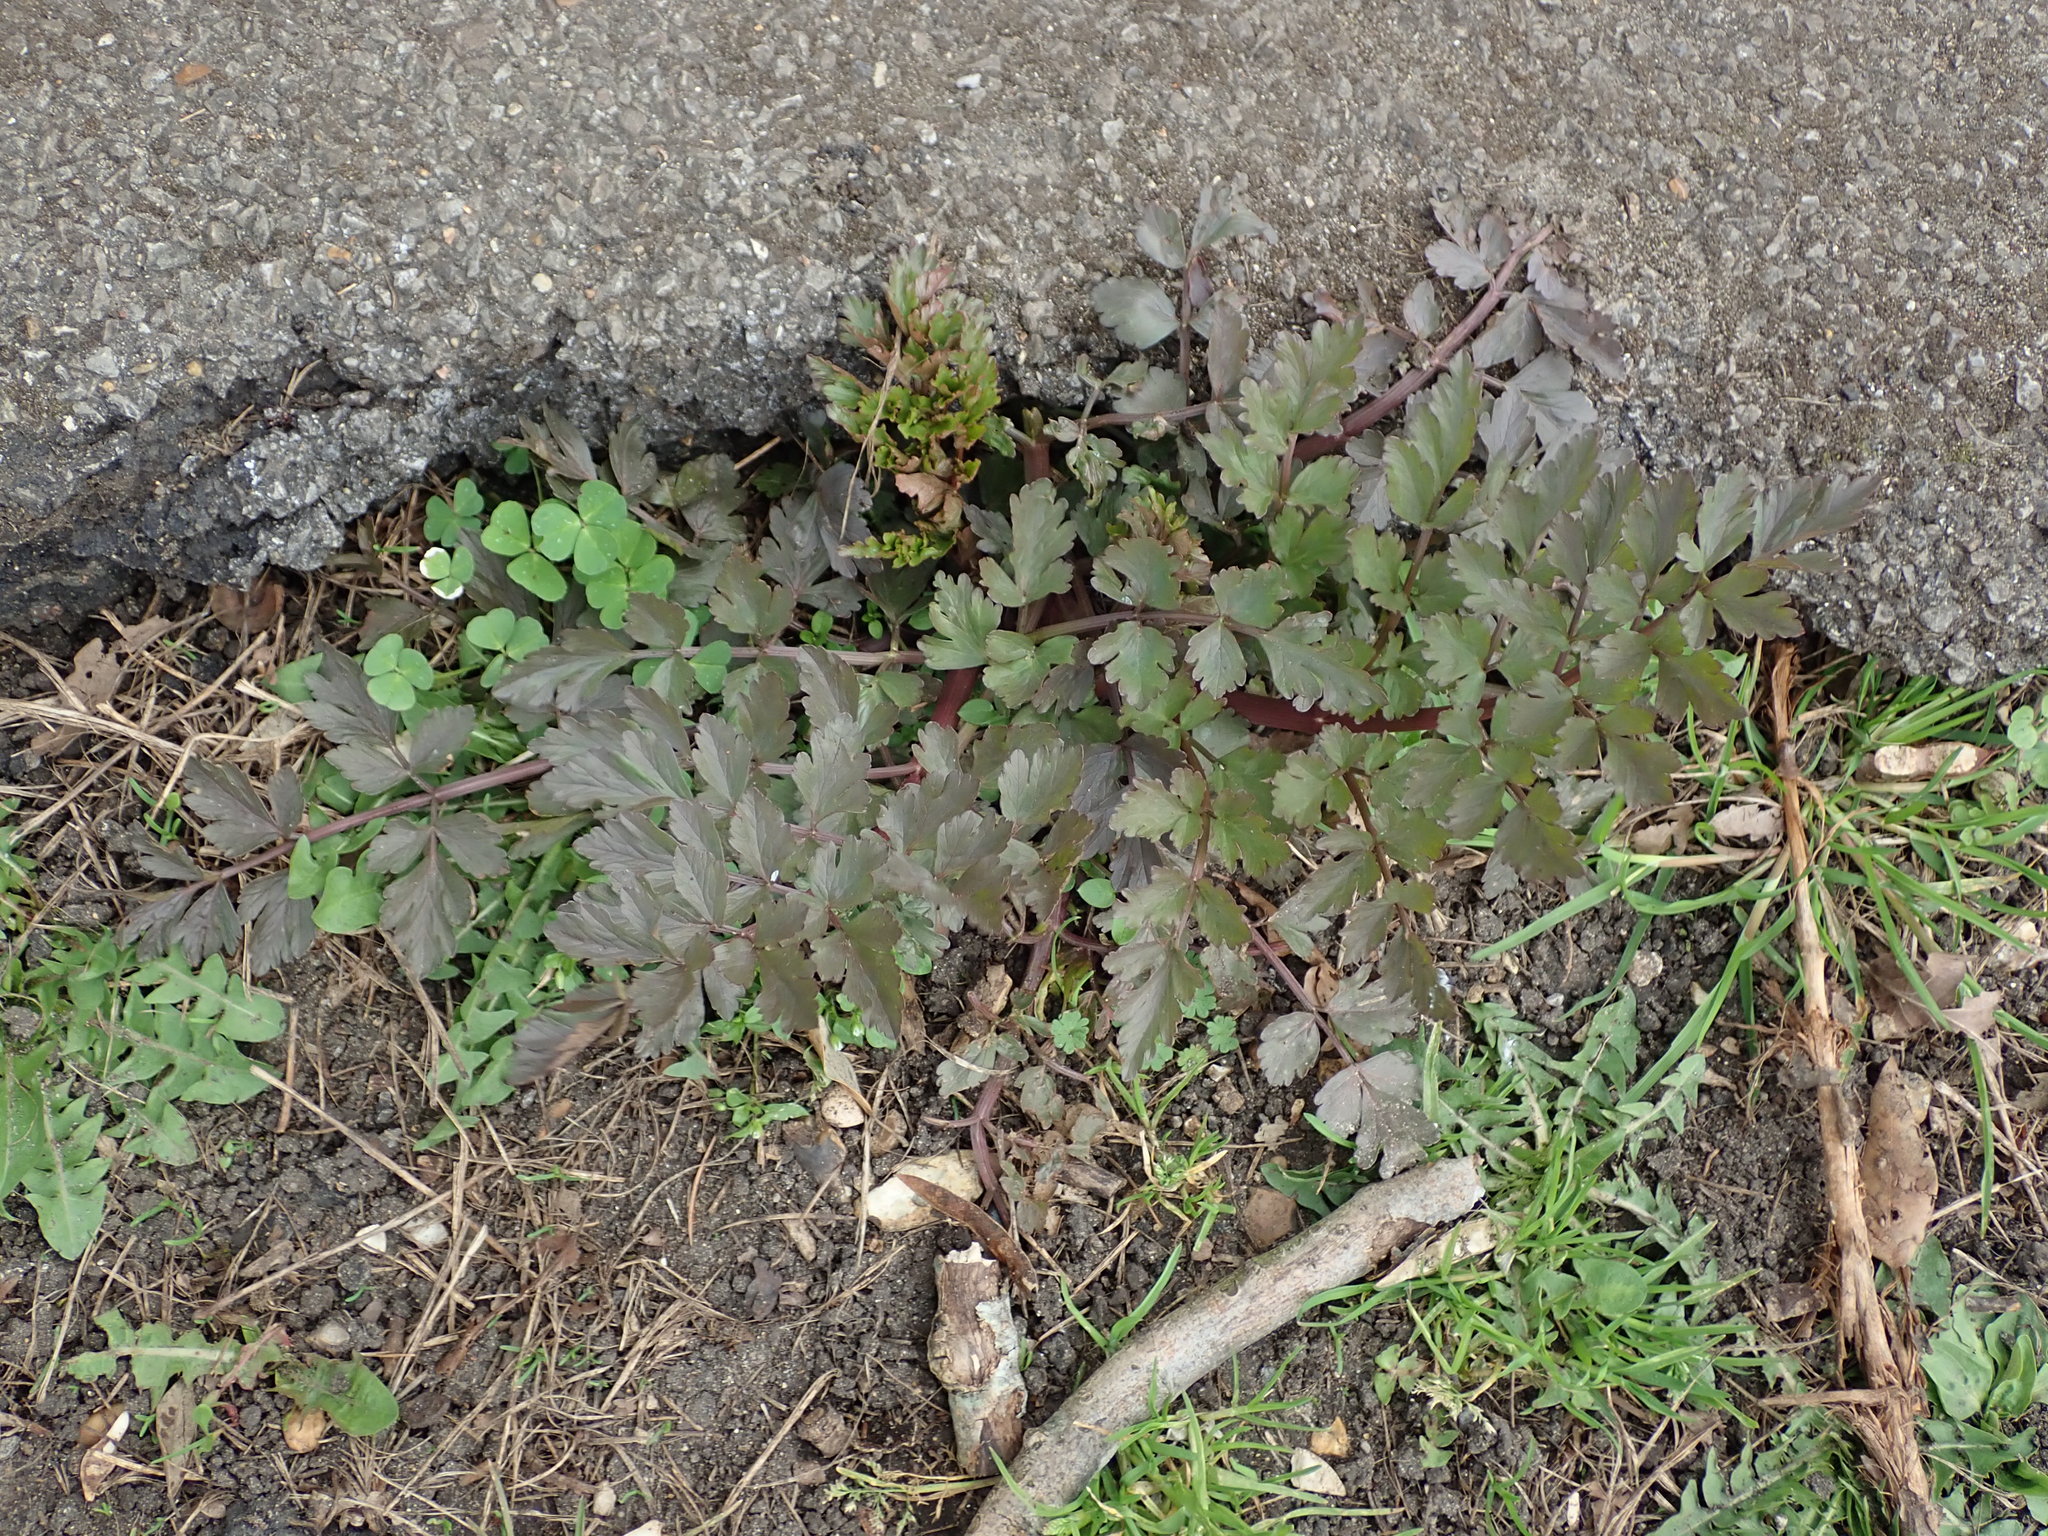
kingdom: Plantae
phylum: Tracheophyta
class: Magnoliopsida
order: Apiales
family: Apiaceae
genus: Oenanthe
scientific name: Oenanthe crocata
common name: Hemlock water-dropwort
